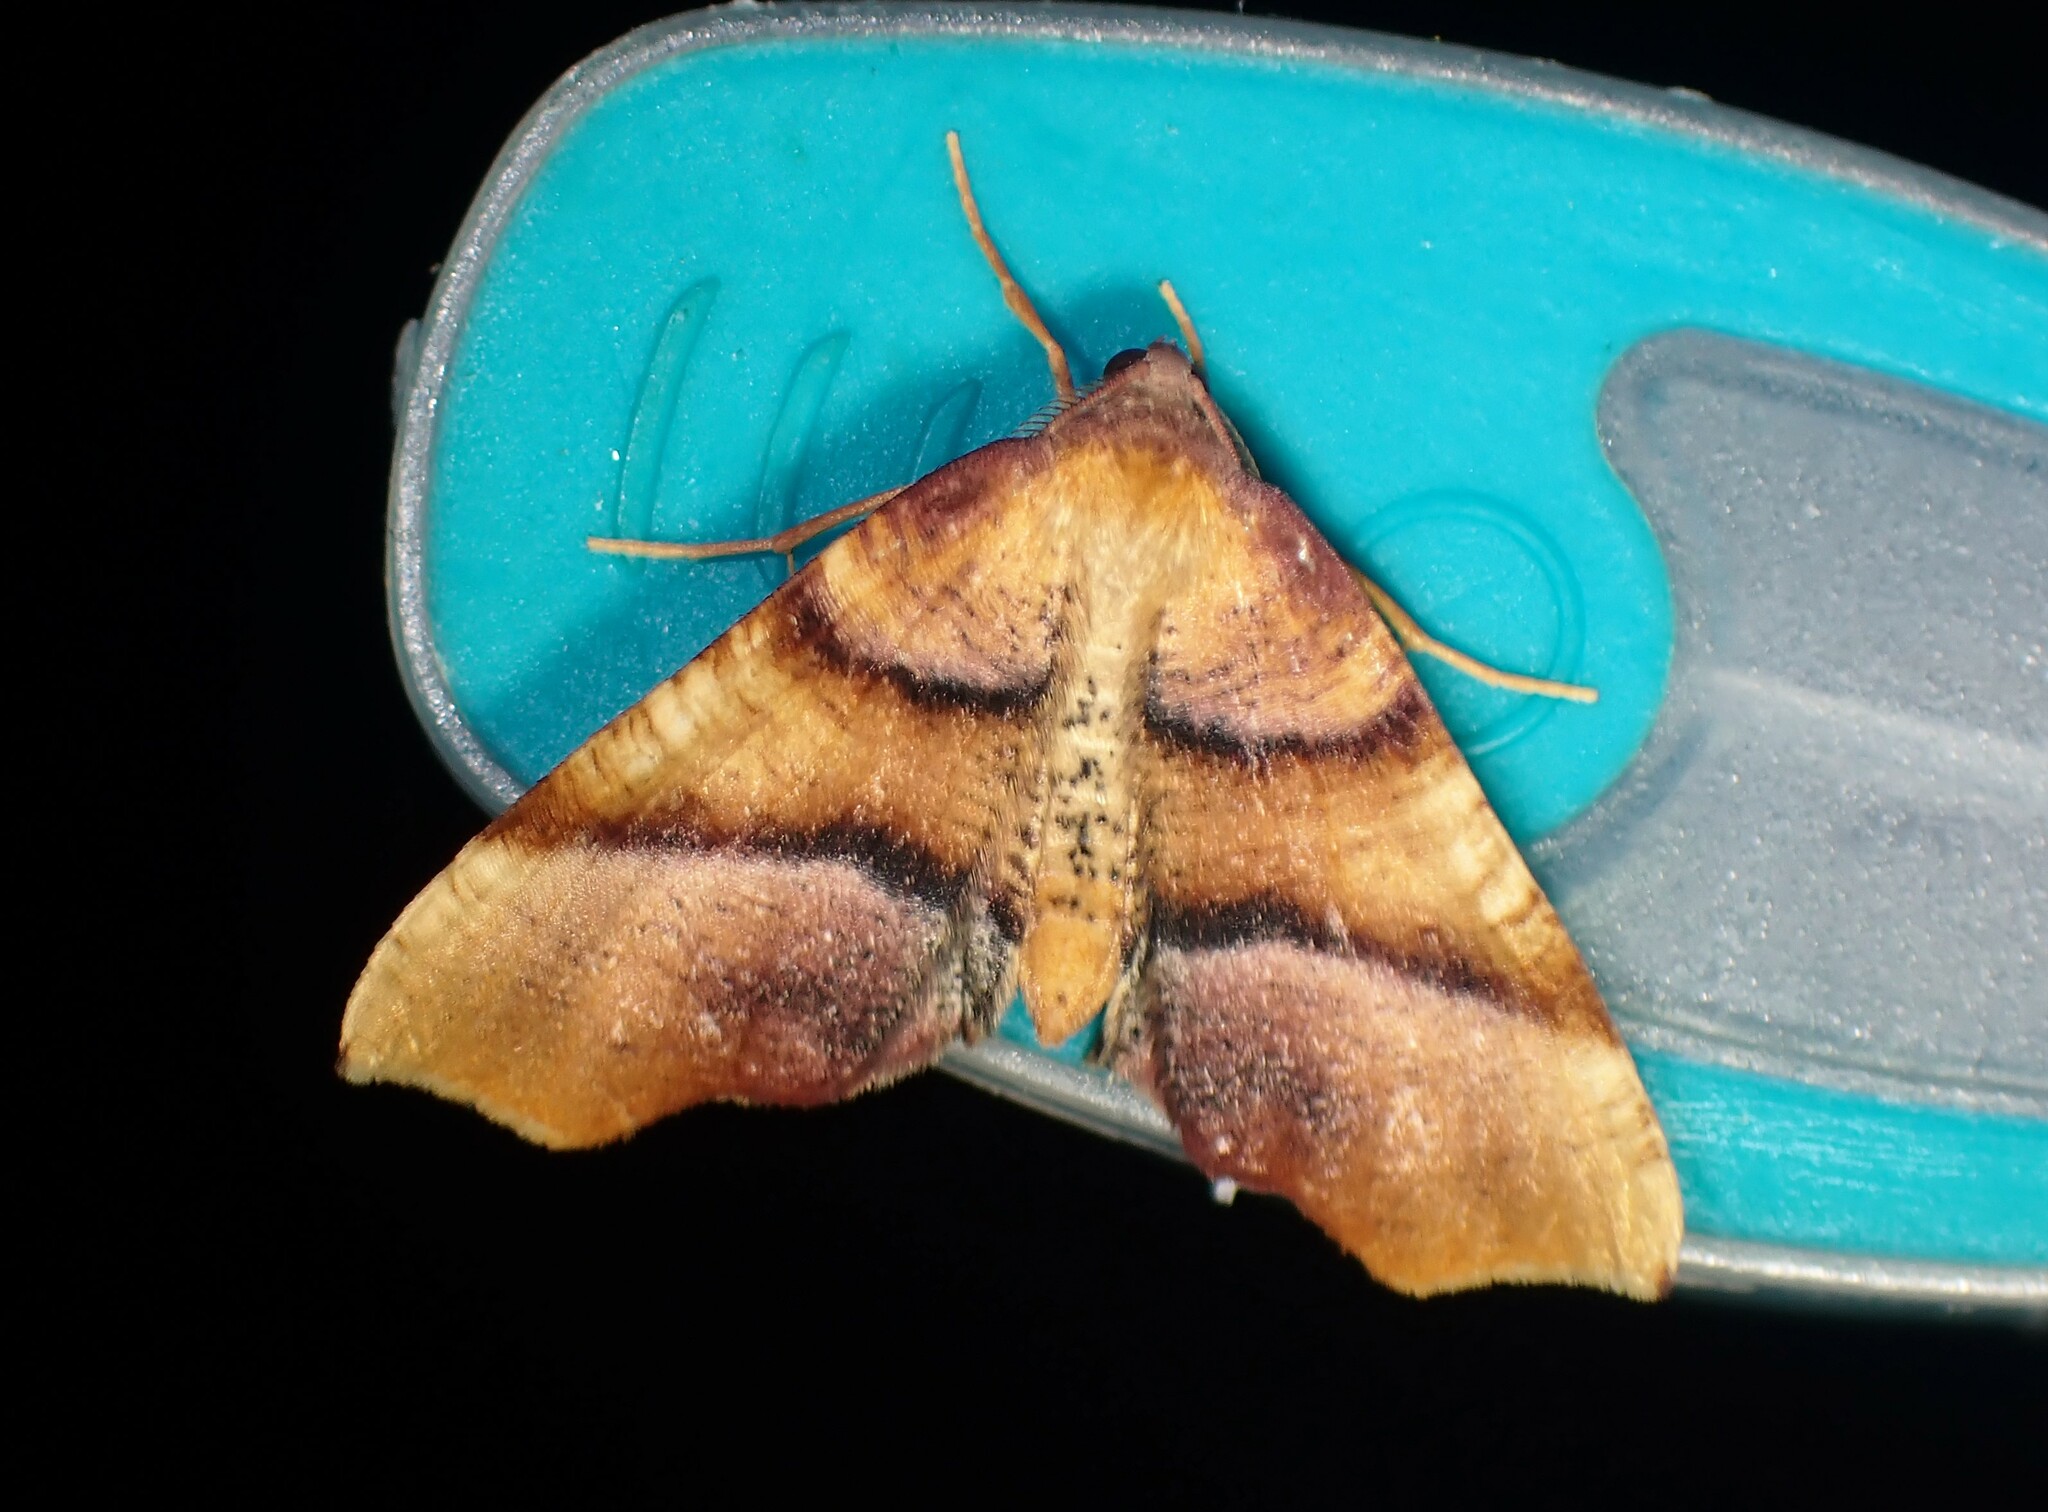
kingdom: Animalia
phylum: Arthropoda
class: Insecta
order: Lepidoptera
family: Geometridae
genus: Plagodis
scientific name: Plagodis phlogosaria
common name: Straight-lined plagodis
